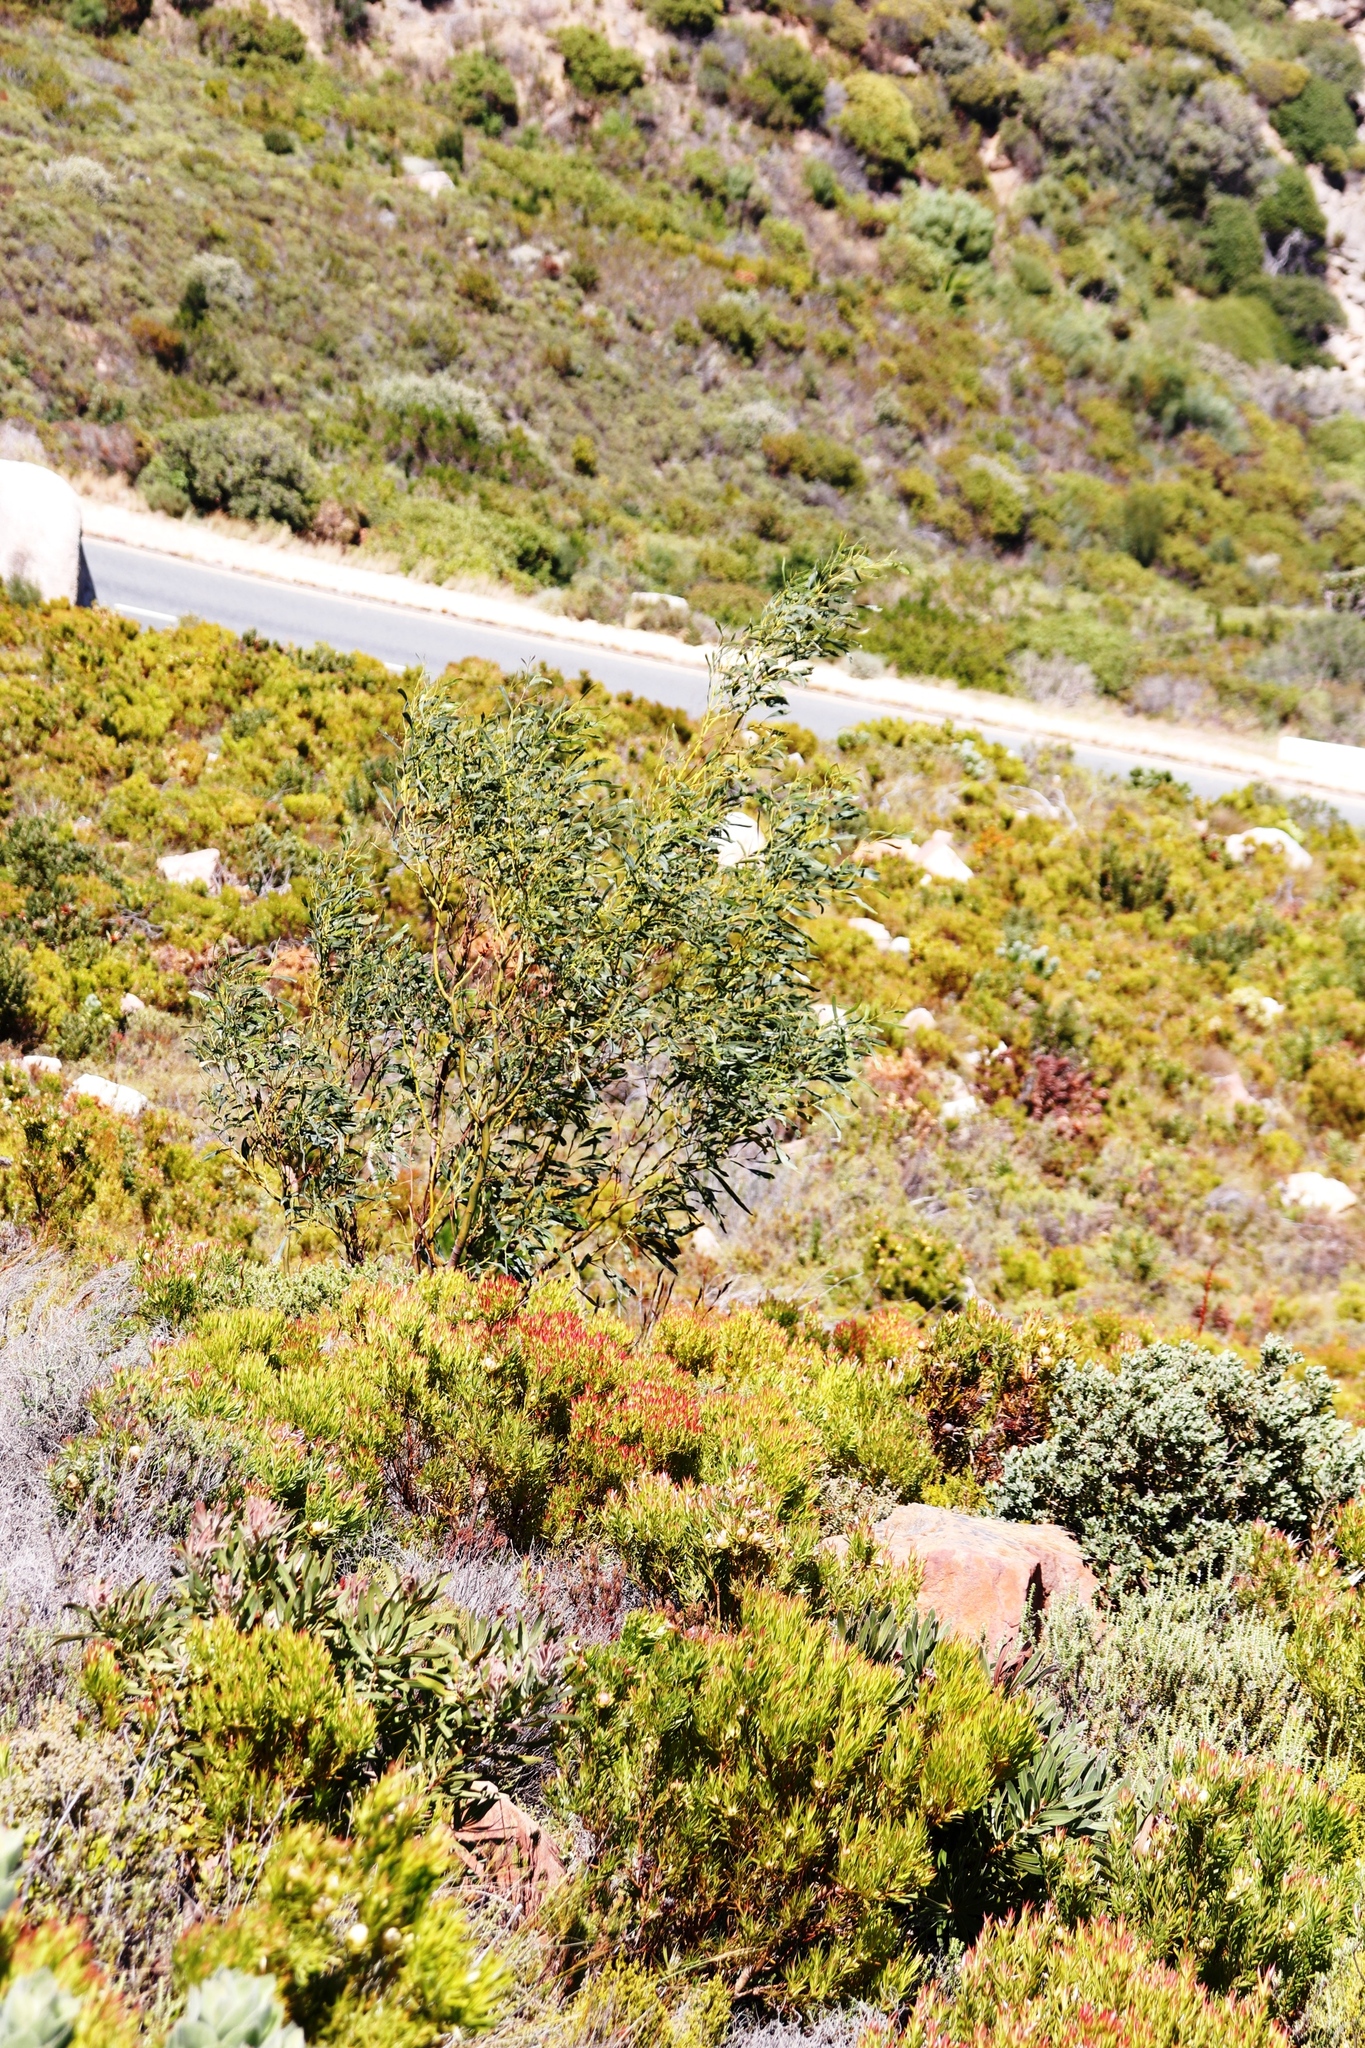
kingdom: Plantae
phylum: Tracheophyta
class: Magnoliopsida
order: Fabales
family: Fabaceae
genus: Acacia
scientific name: Acacia saligna
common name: Orange wattle
